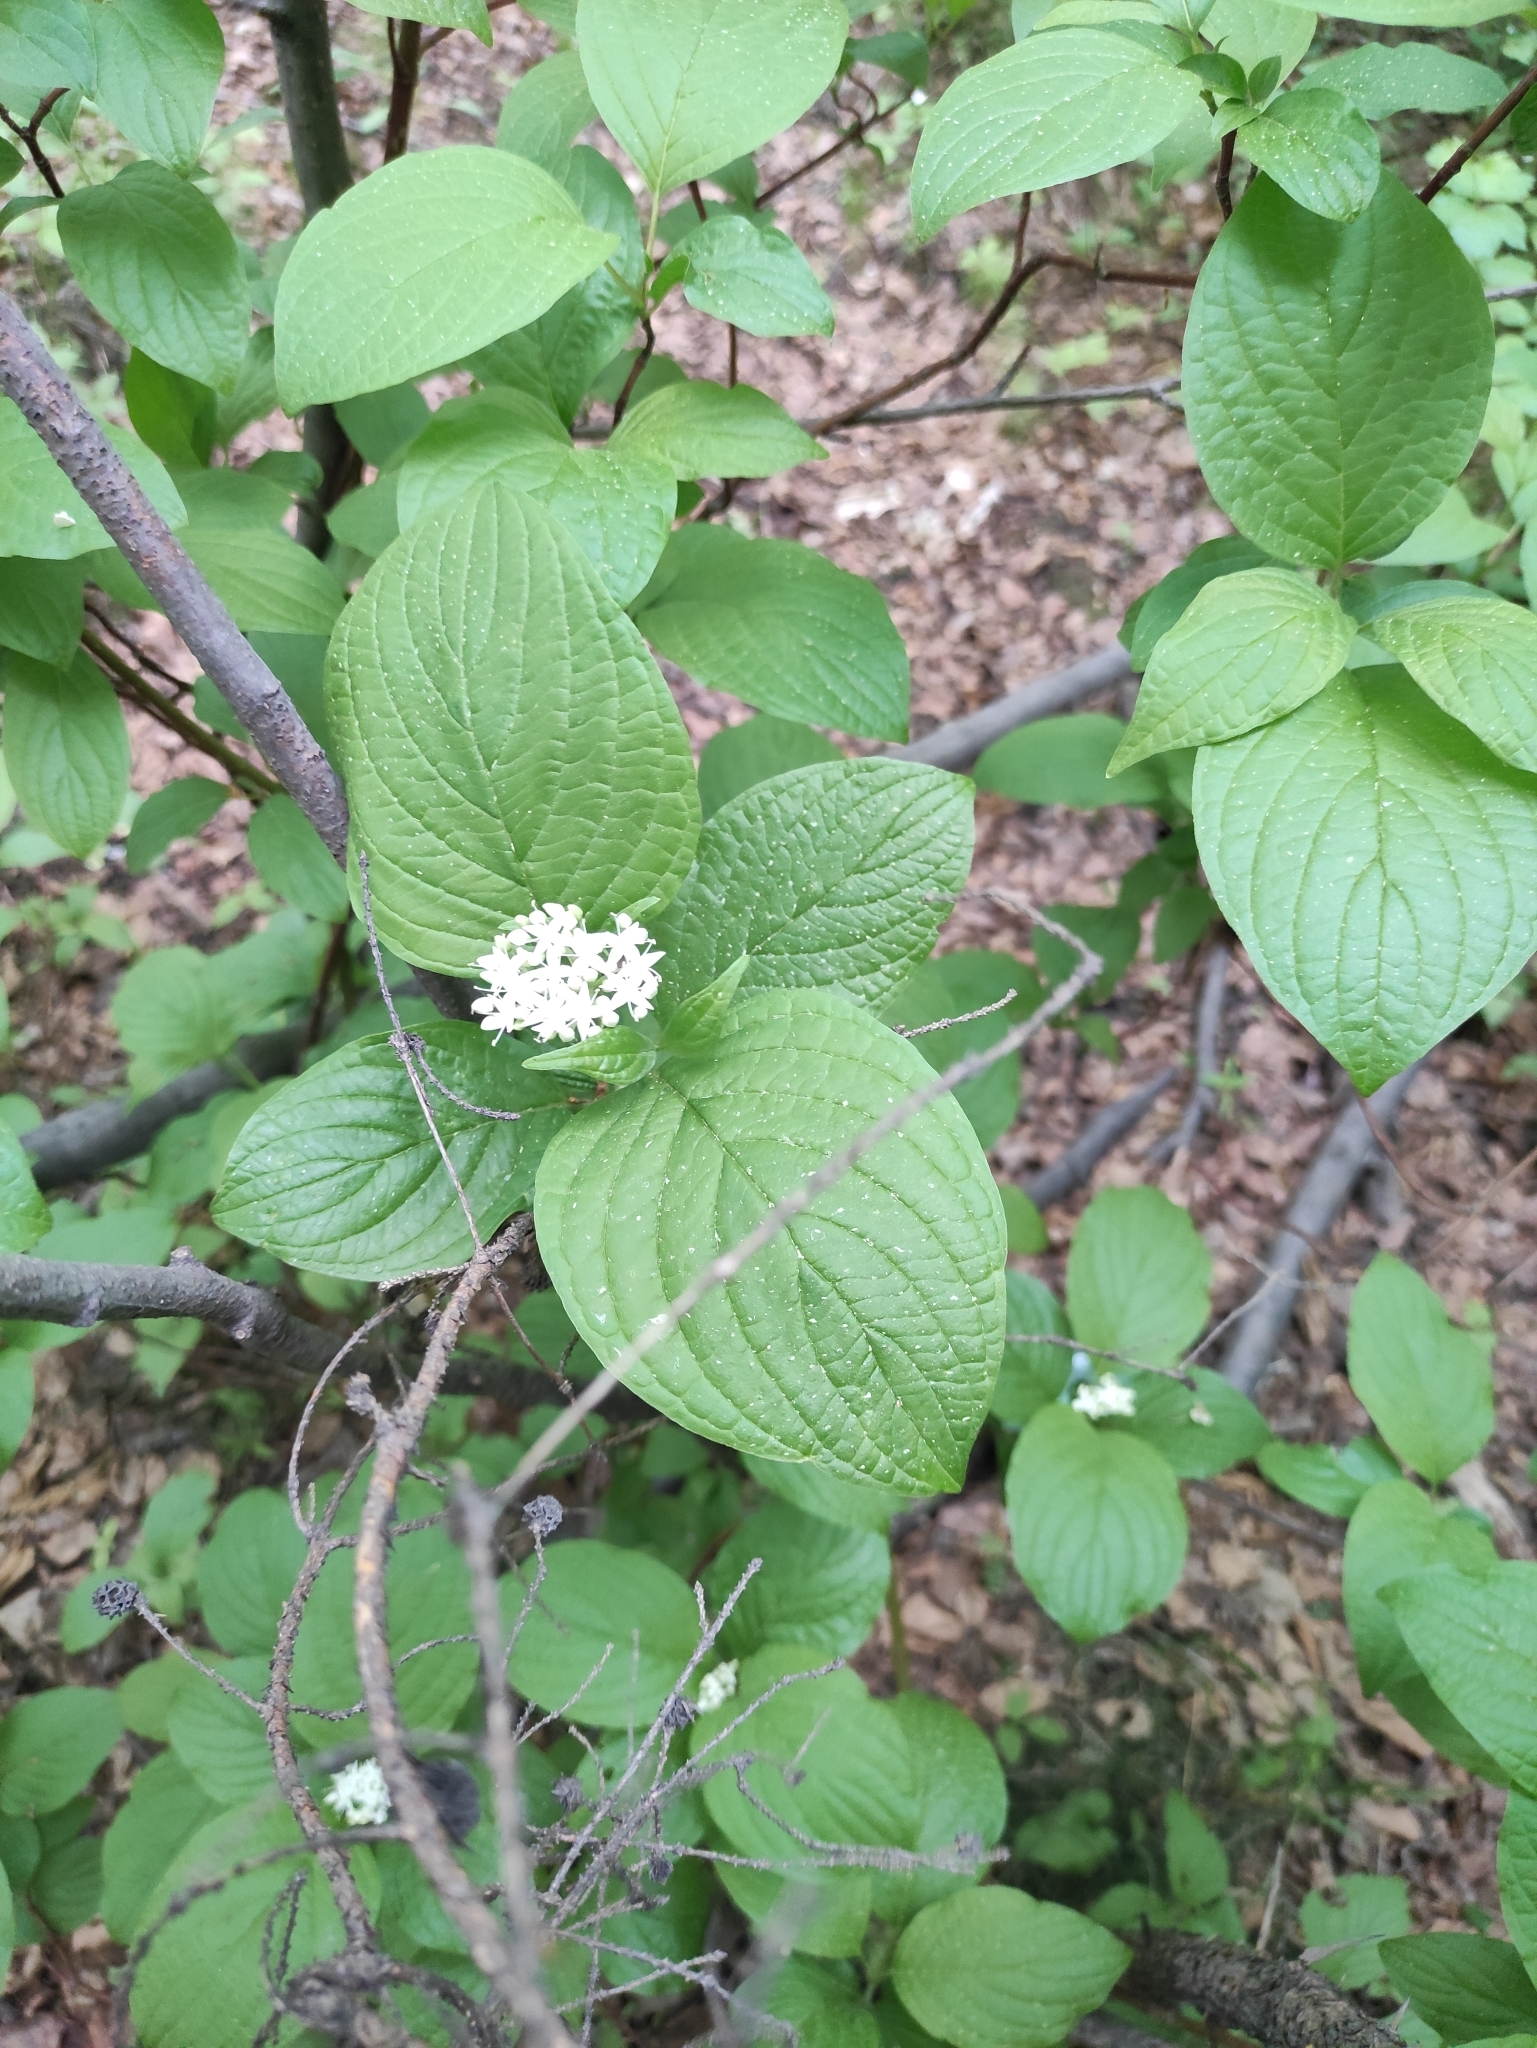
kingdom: Plantae
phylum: Tracheophyta
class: Magnoliopsida
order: Cornales
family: Cornaceae
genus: Cornus
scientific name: Cornus alba
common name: White dogwood
